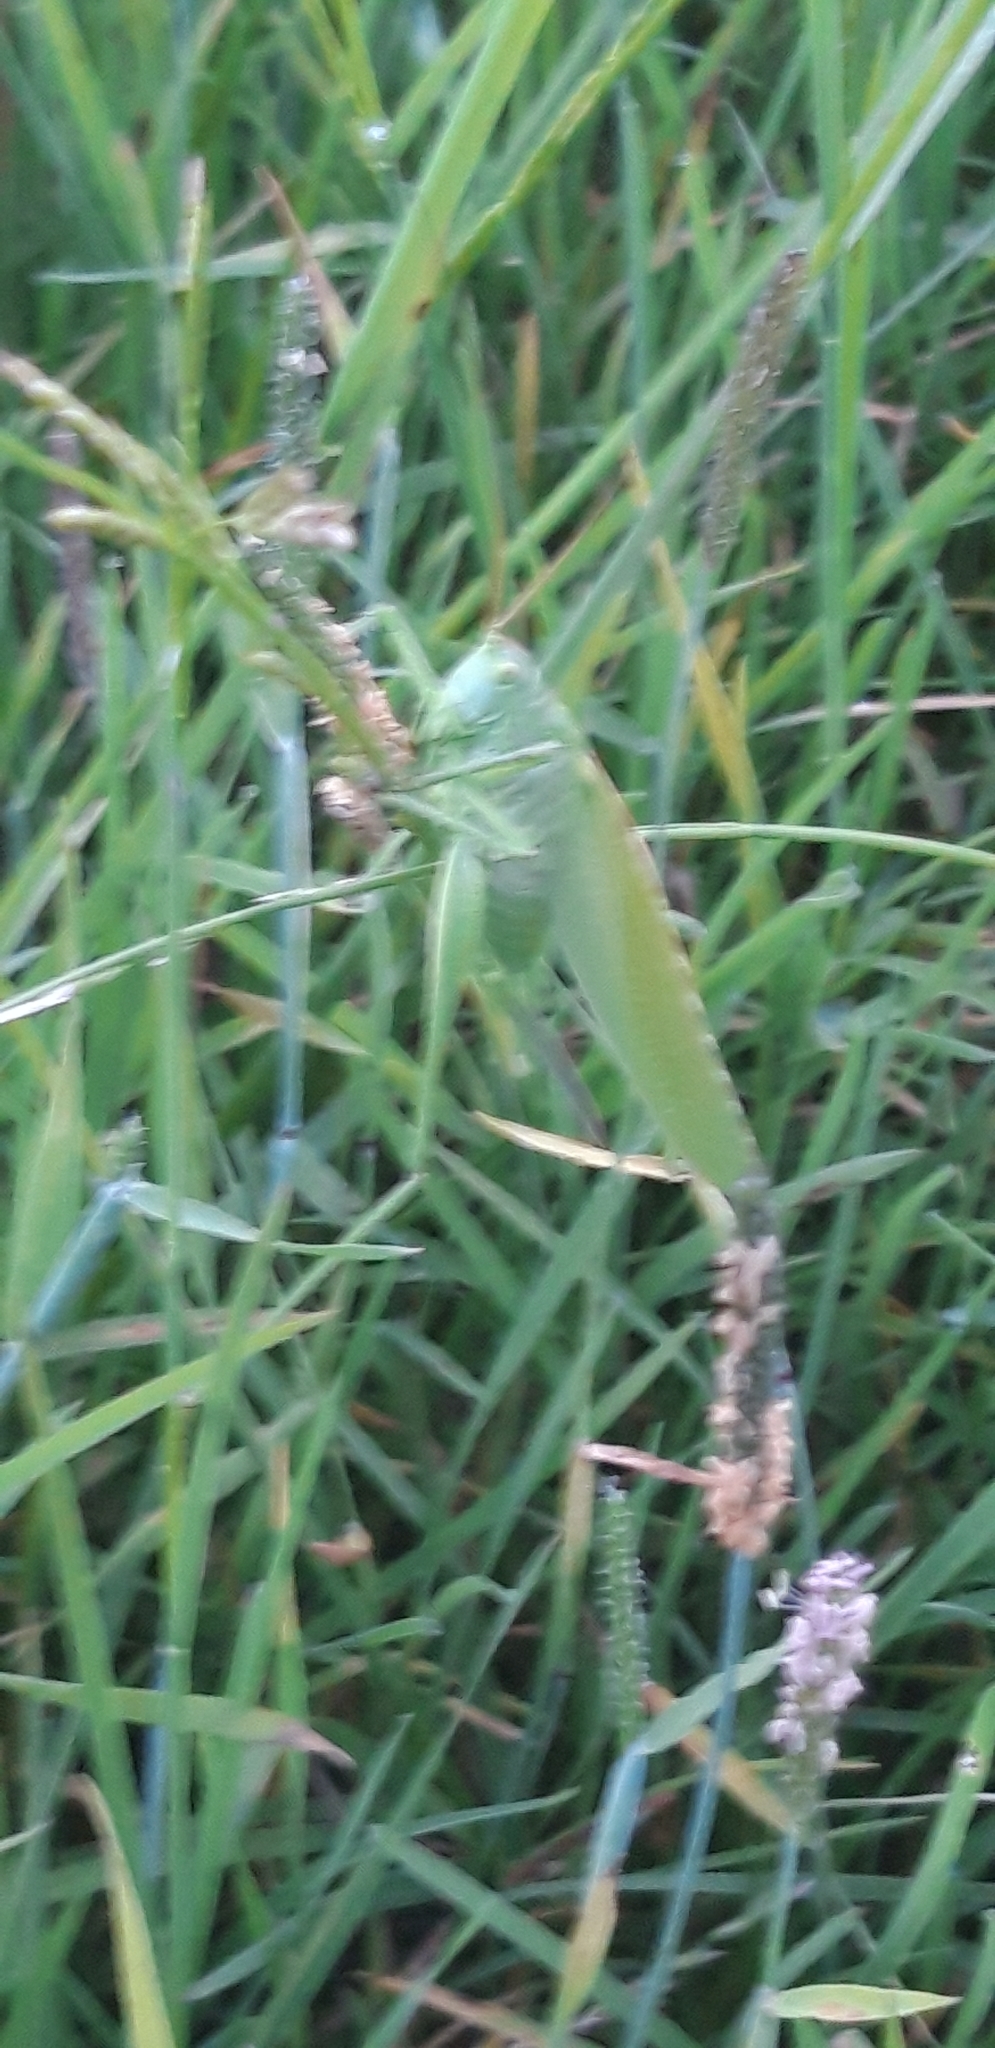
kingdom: Animalia
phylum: Arthropoda
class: Insecta
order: Orthoptera
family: Tettigoniidae
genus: Tettigonia
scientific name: Tettigonia viridissima
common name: Great green bush-cricket
